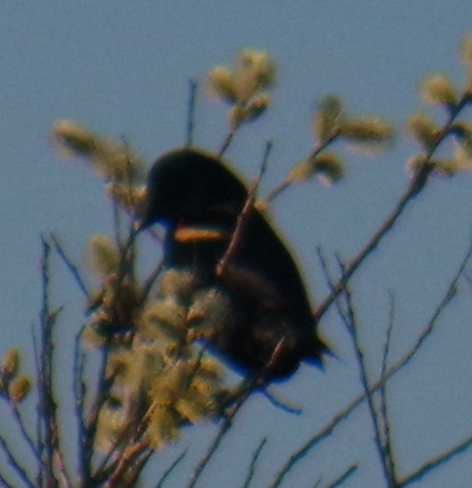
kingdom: Animalia
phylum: Chordata
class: Aves
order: Passeriformes
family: Icteridae
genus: Agelaius
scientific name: Agelaius phoeniceus
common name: Red-winged blackbird
